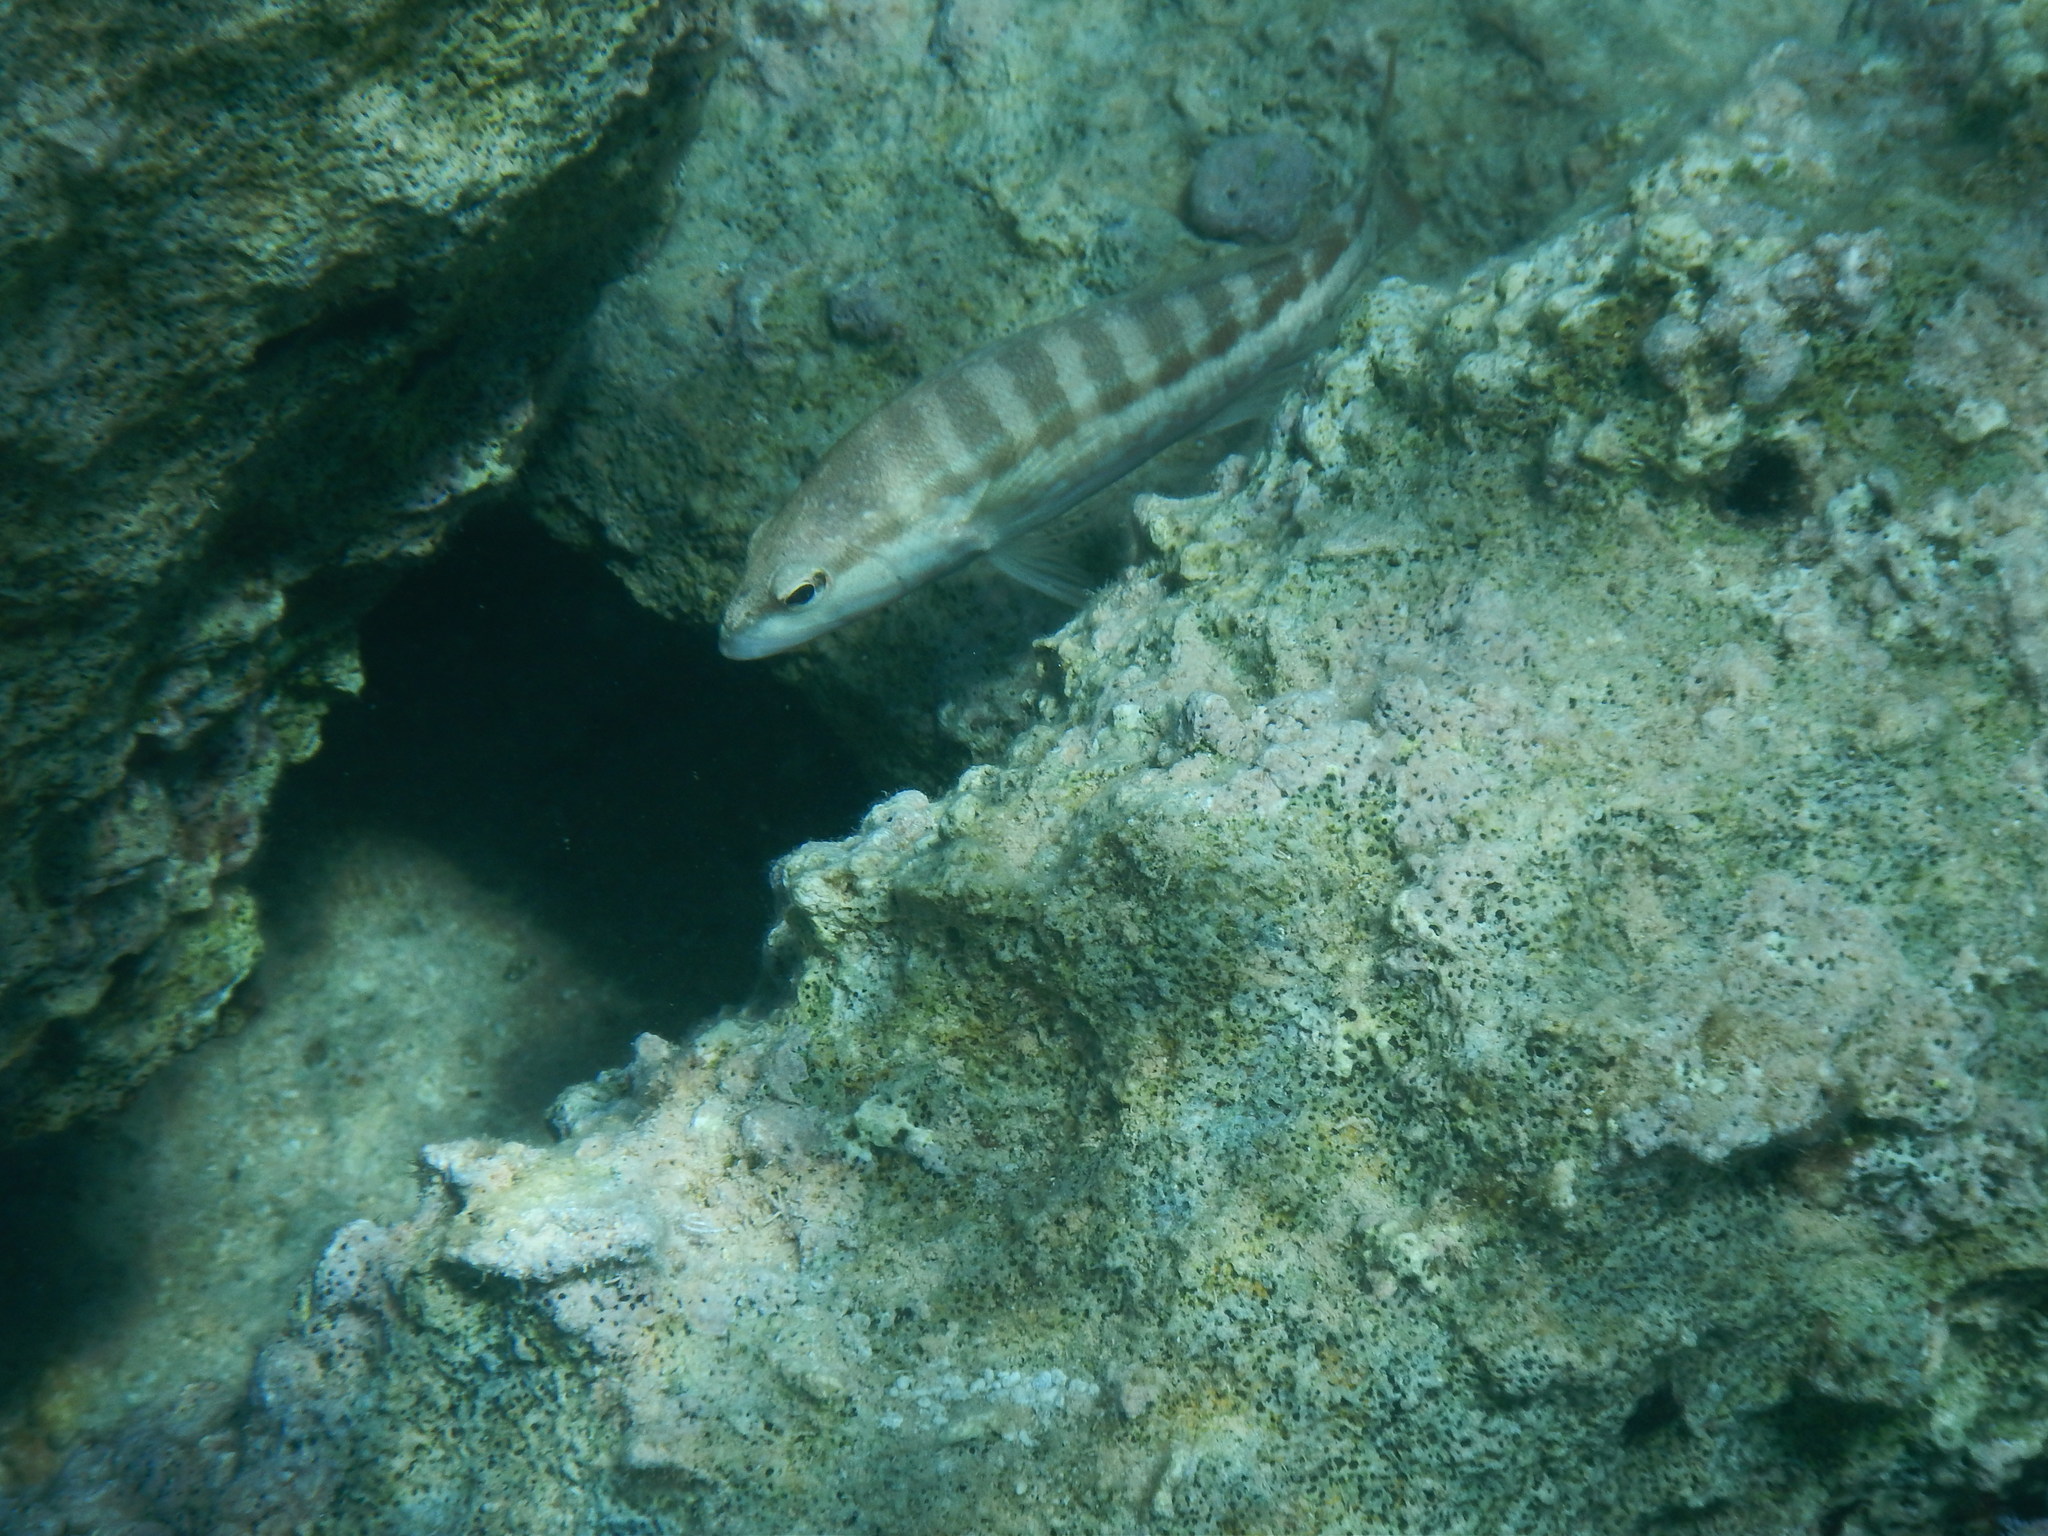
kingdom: Animalia
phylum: Chordata
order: Perciformes
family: Serranidae
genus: Serranus
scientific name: Serranus cabrilla
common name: Comber
